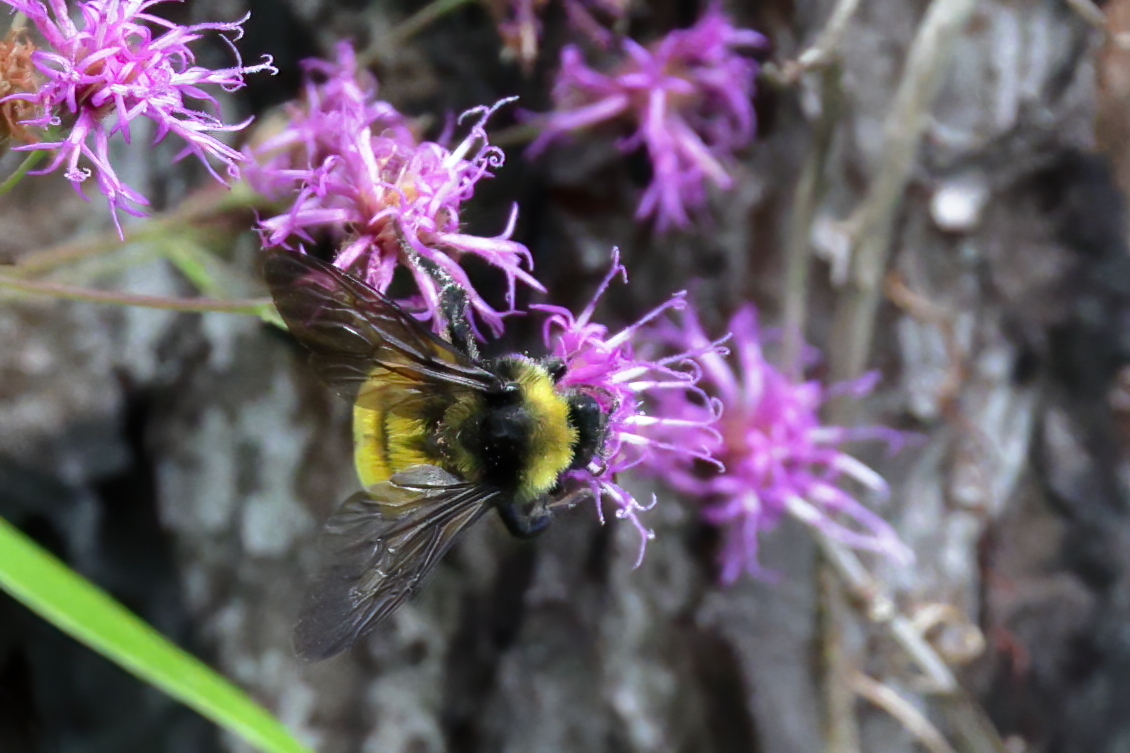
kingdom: Animalia
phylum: Arthropoda
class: Insecta
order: Hymenoptera
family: Apidae
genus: Bombus
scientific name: Bombus pensylvanicus
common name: Bumble bee
